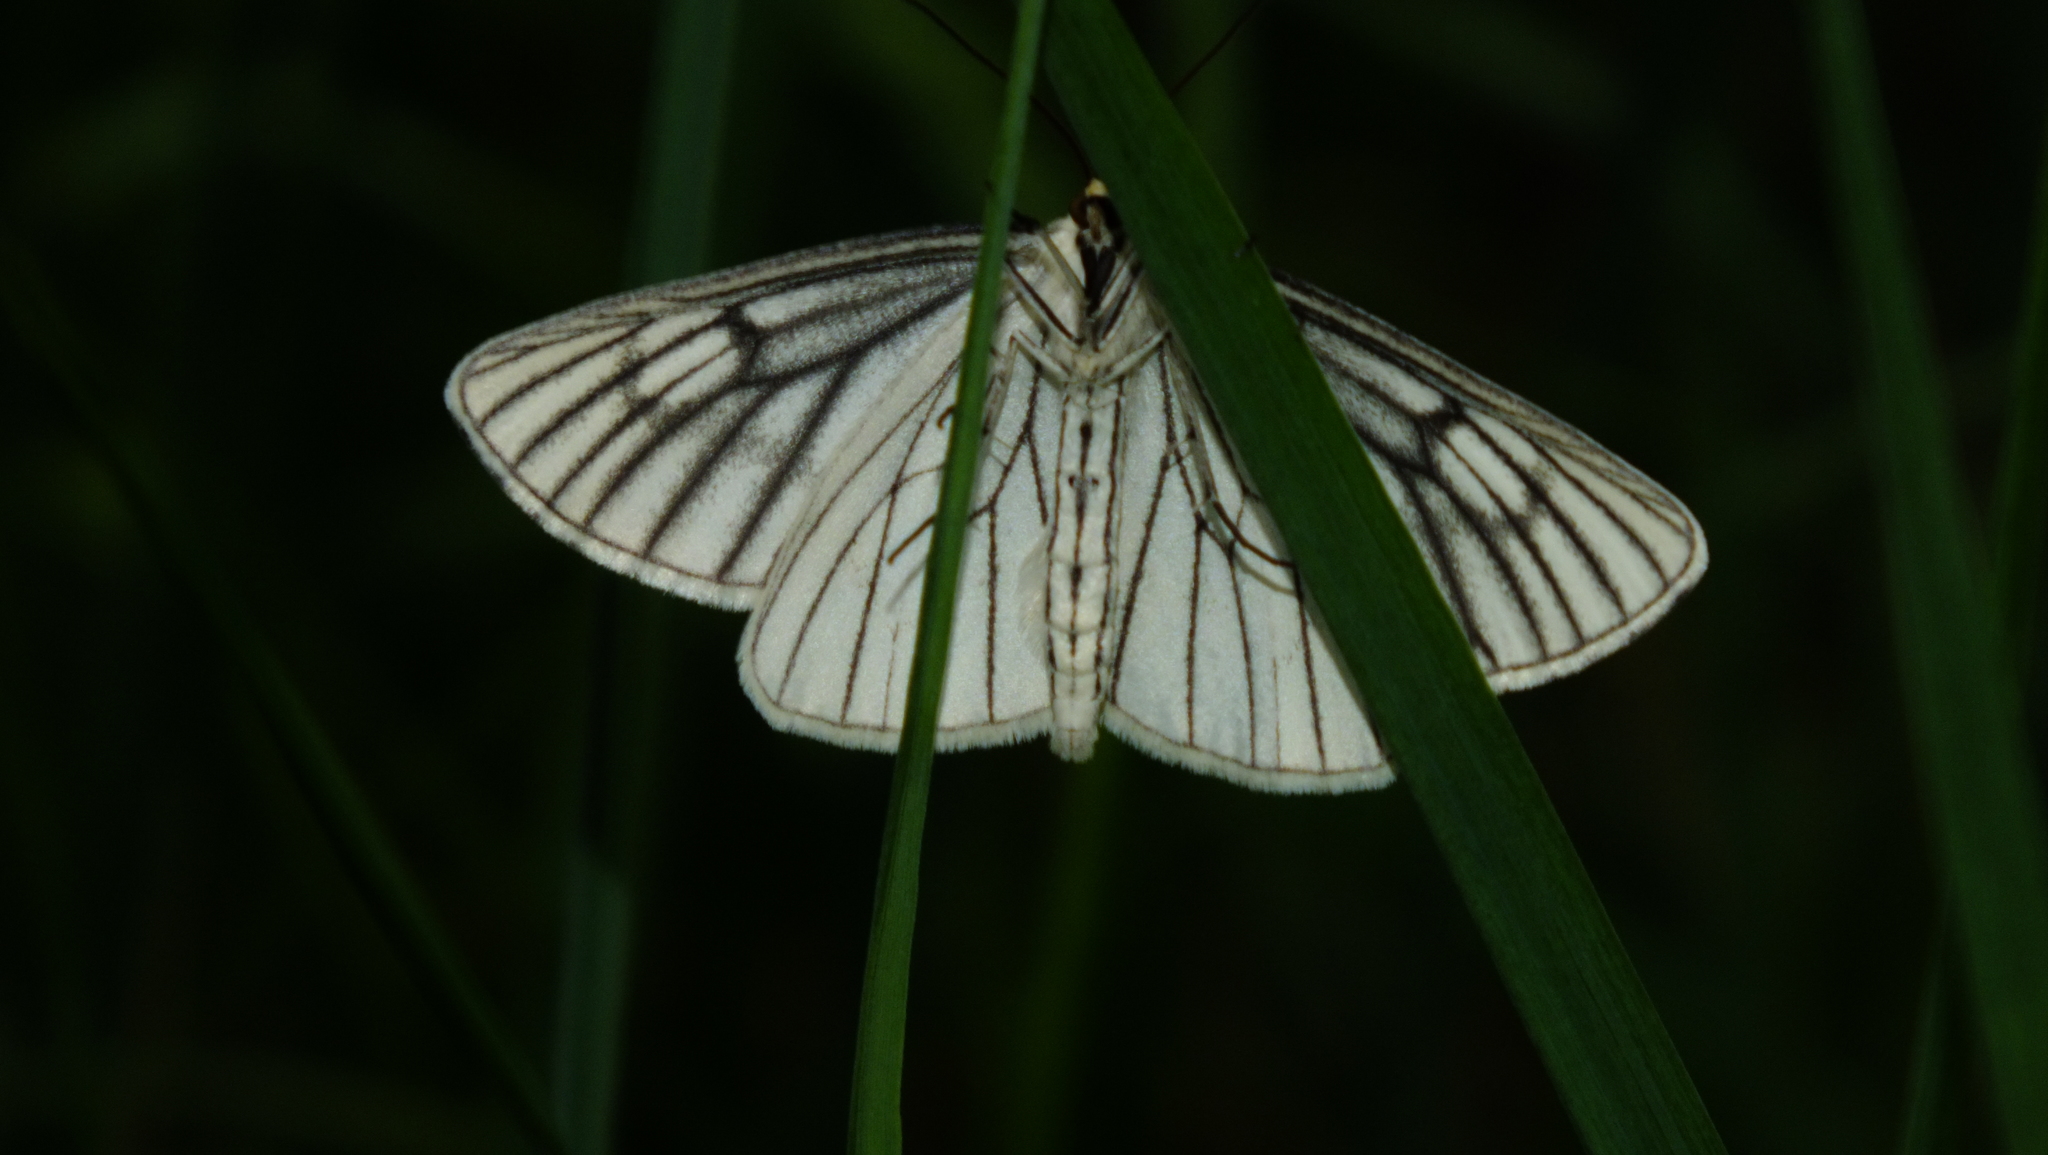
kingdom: Animalia
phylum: Arthropoda
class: Insecta
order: Lepidoptera
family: Geometridae
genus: Siona
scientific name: Siona lineata
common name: Black-veined moth
